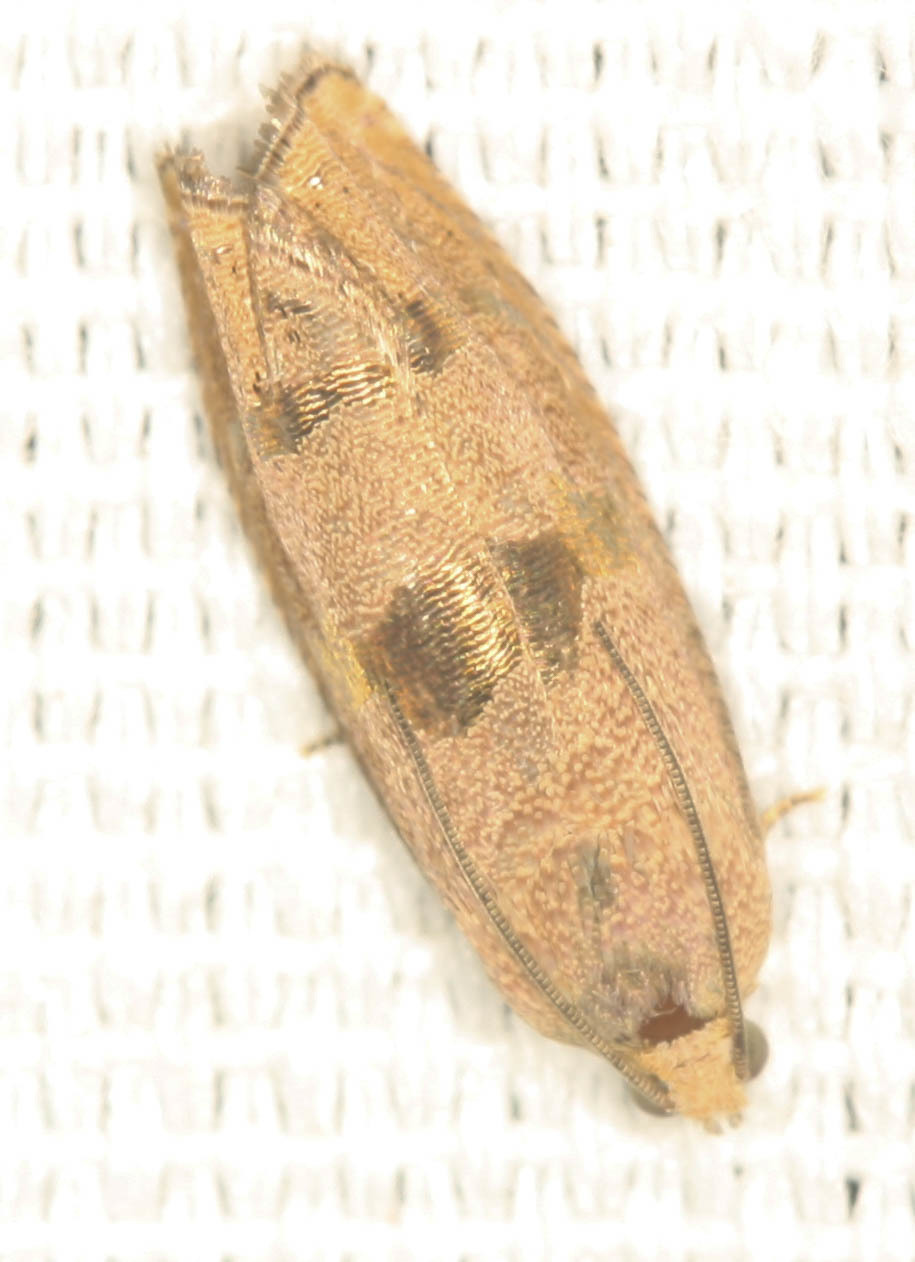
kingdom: Animalia
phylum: Arthropoda
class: Insecta
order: Lepidoptera
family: Tortricidae
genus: Cydia
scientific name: Cydia latiferreana
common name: Filbertworm moth
